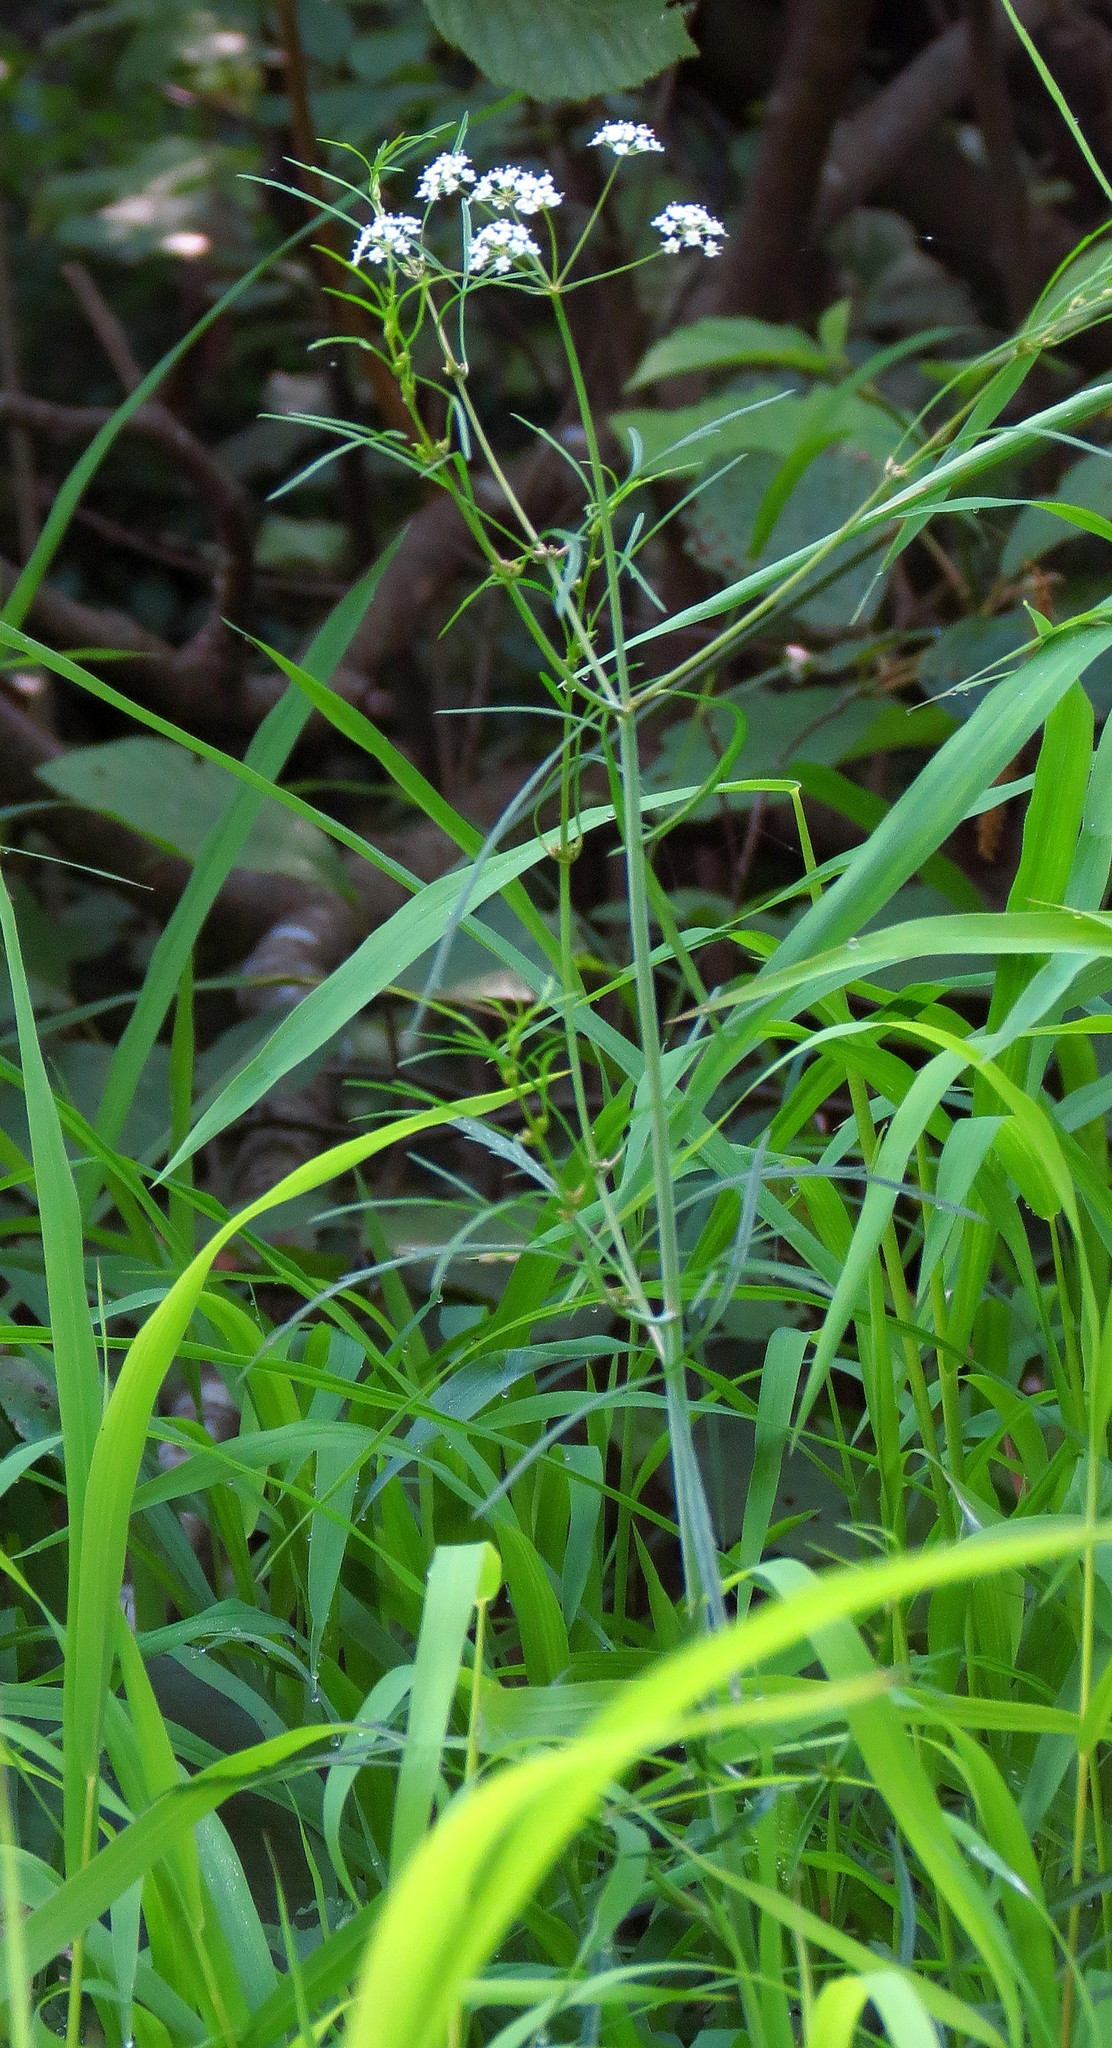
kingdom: Plantae
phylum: Tracheophyta
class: Magnoliopsida
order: Apiales
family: Apiaceae
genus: Cicuta
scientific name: Cicuta bulbifera
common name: Bulb-bearing water-hemlock
